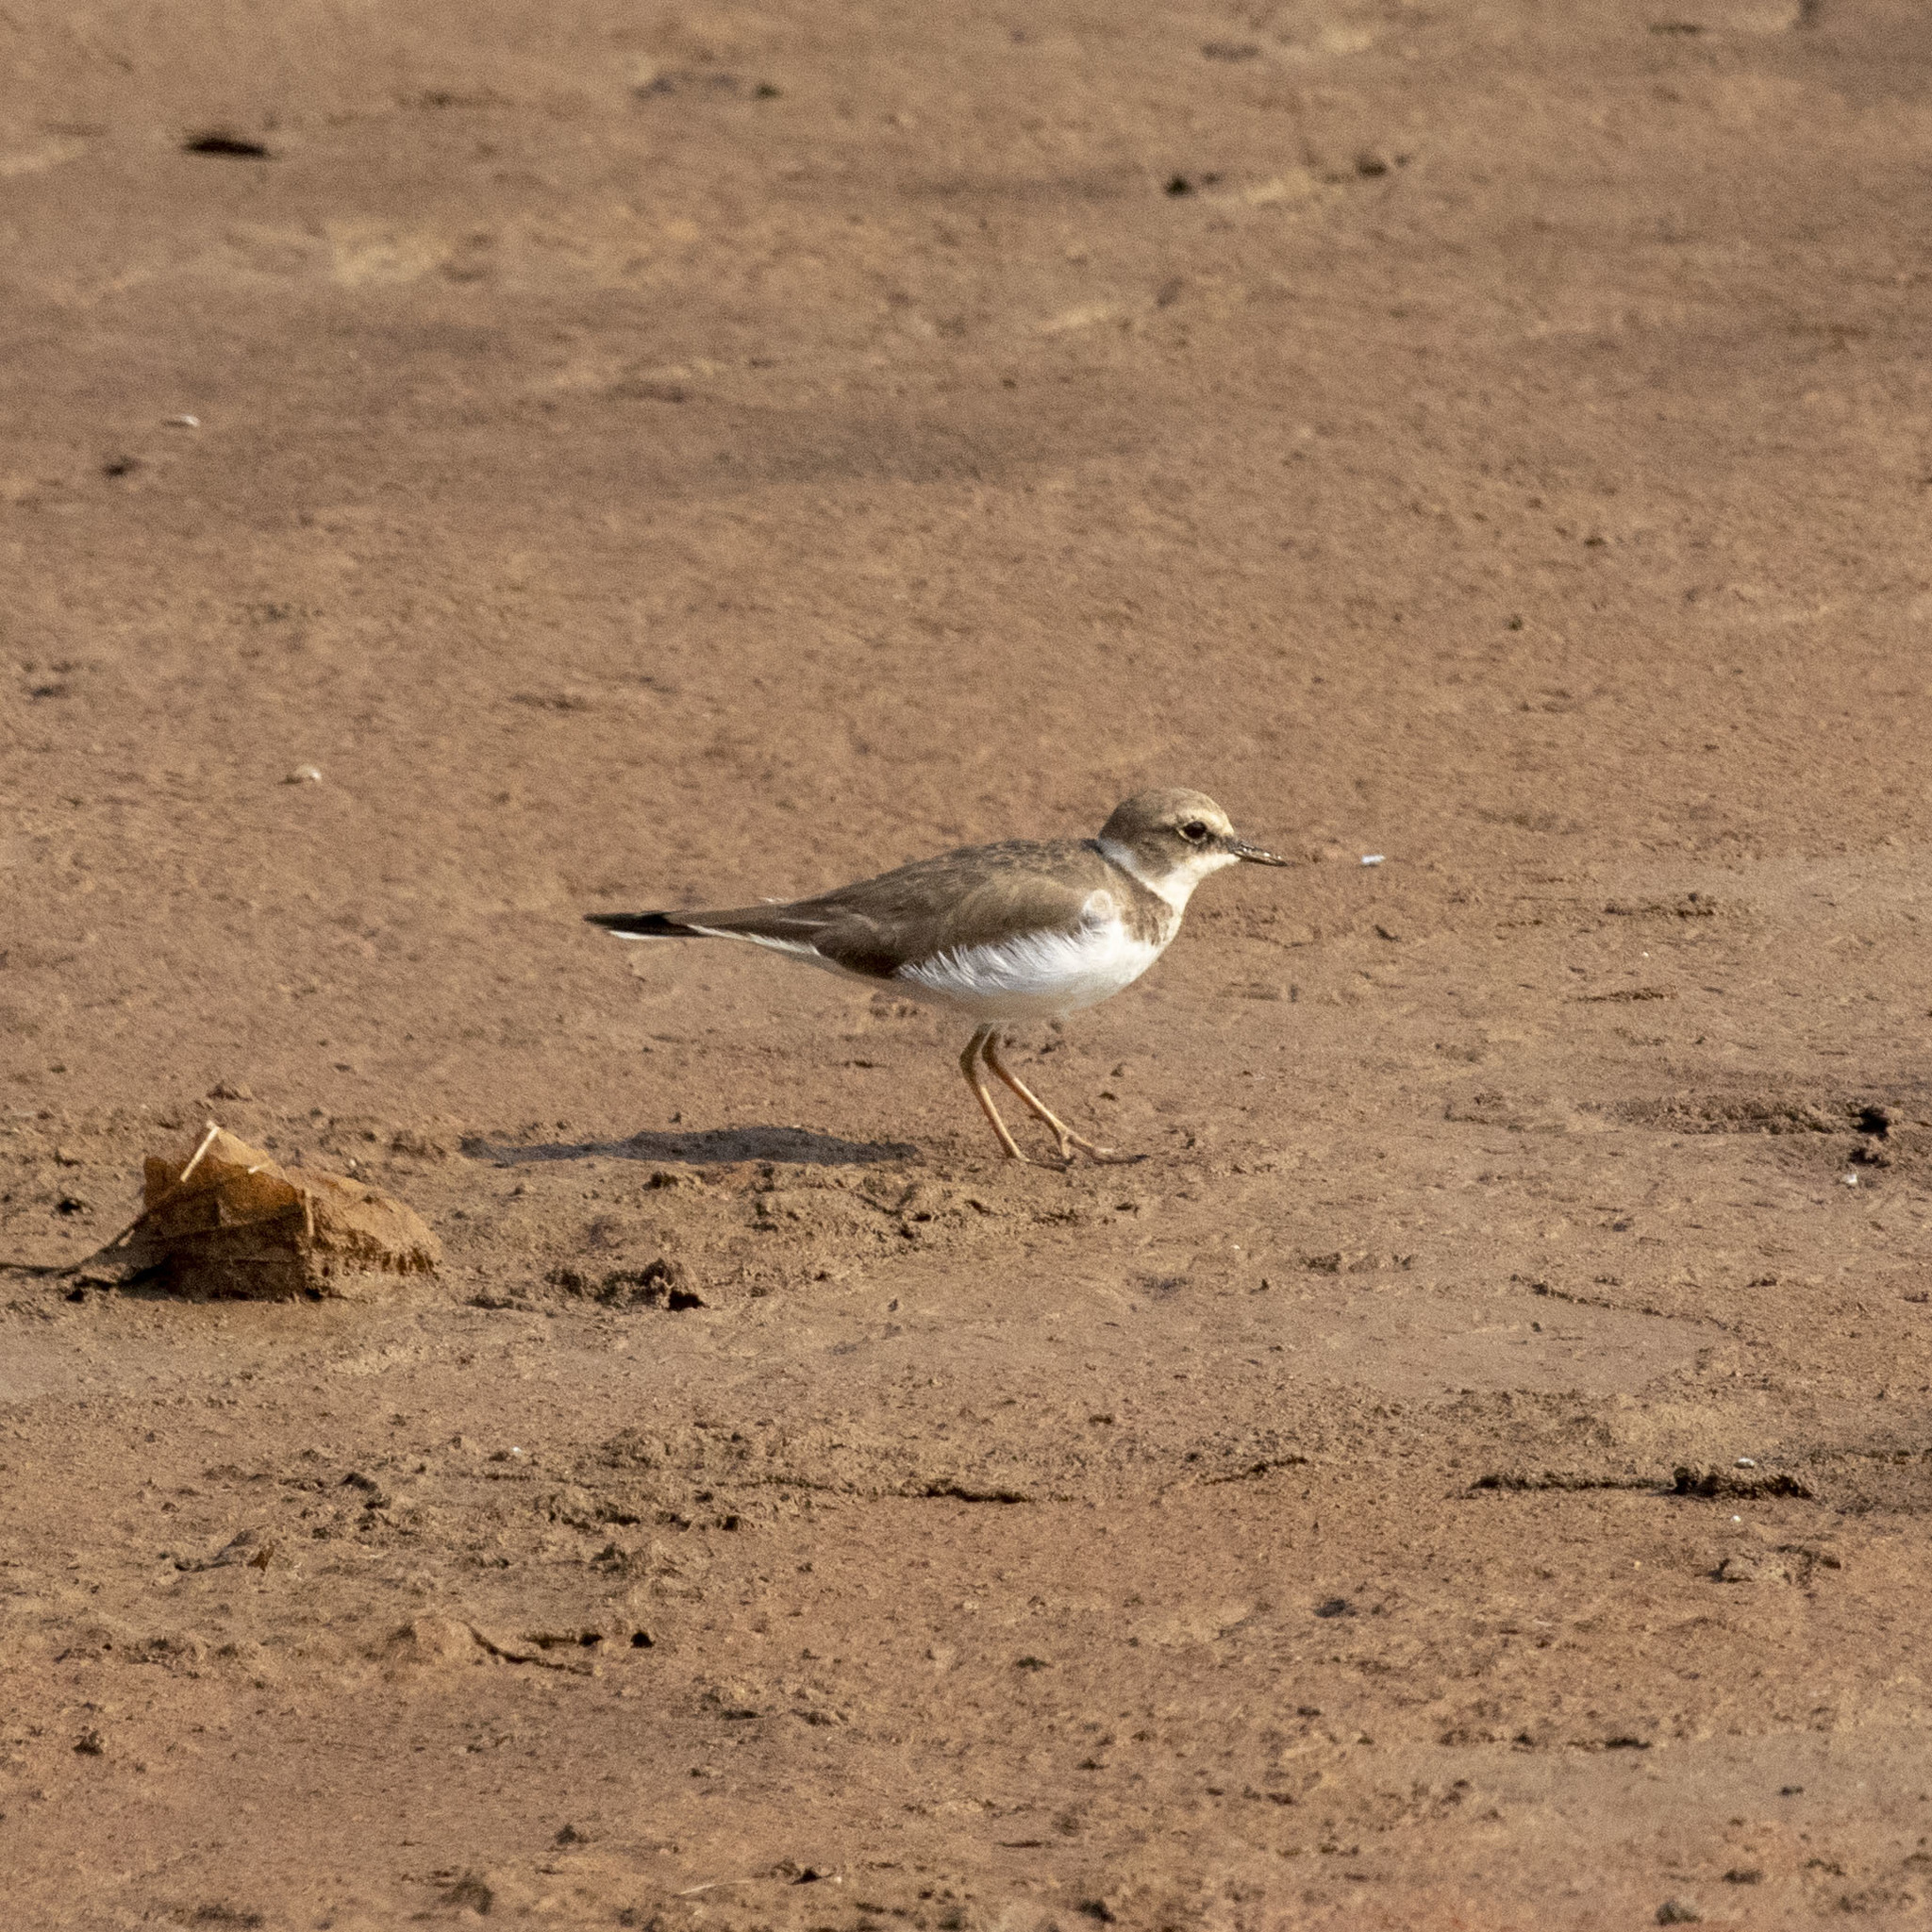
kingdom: Animalia
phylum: Chordata
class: Aves
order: Charadriiformes
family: Charadriidae
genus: Charadrius
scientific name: Charadrius dubius
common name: Little ringed plover
